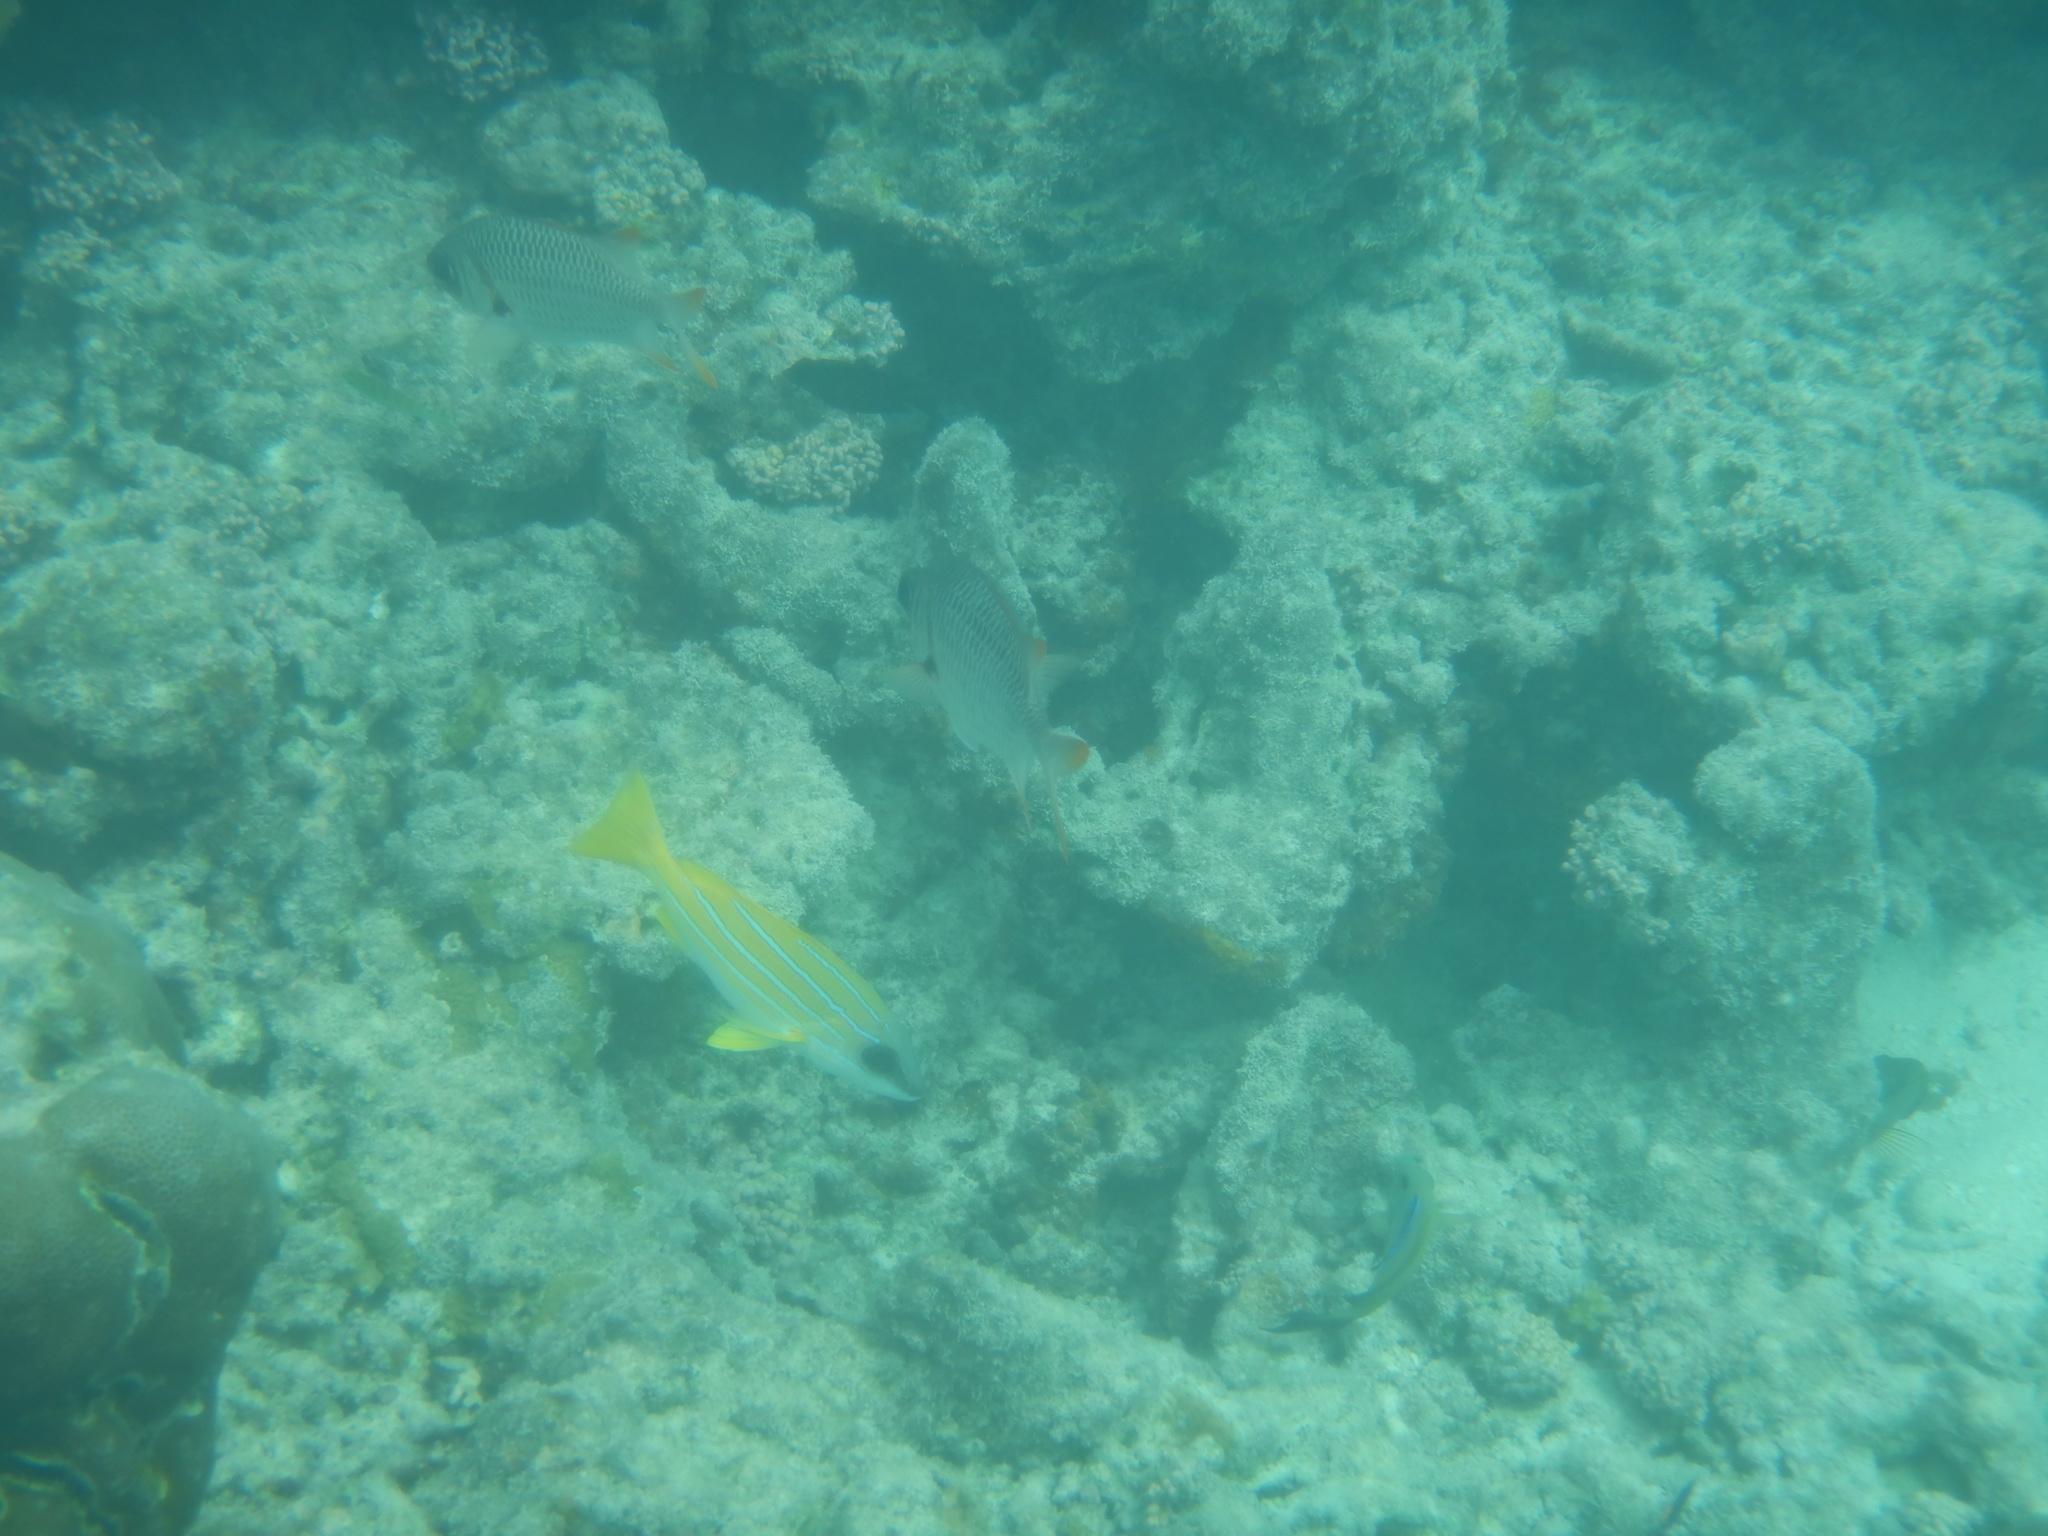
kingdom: Animalia
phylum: Chordata
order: Perciformes
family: Lutjanidae
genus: Lutjanus
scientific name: Lutjanus kasmira
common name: Common bluestripe snapper
